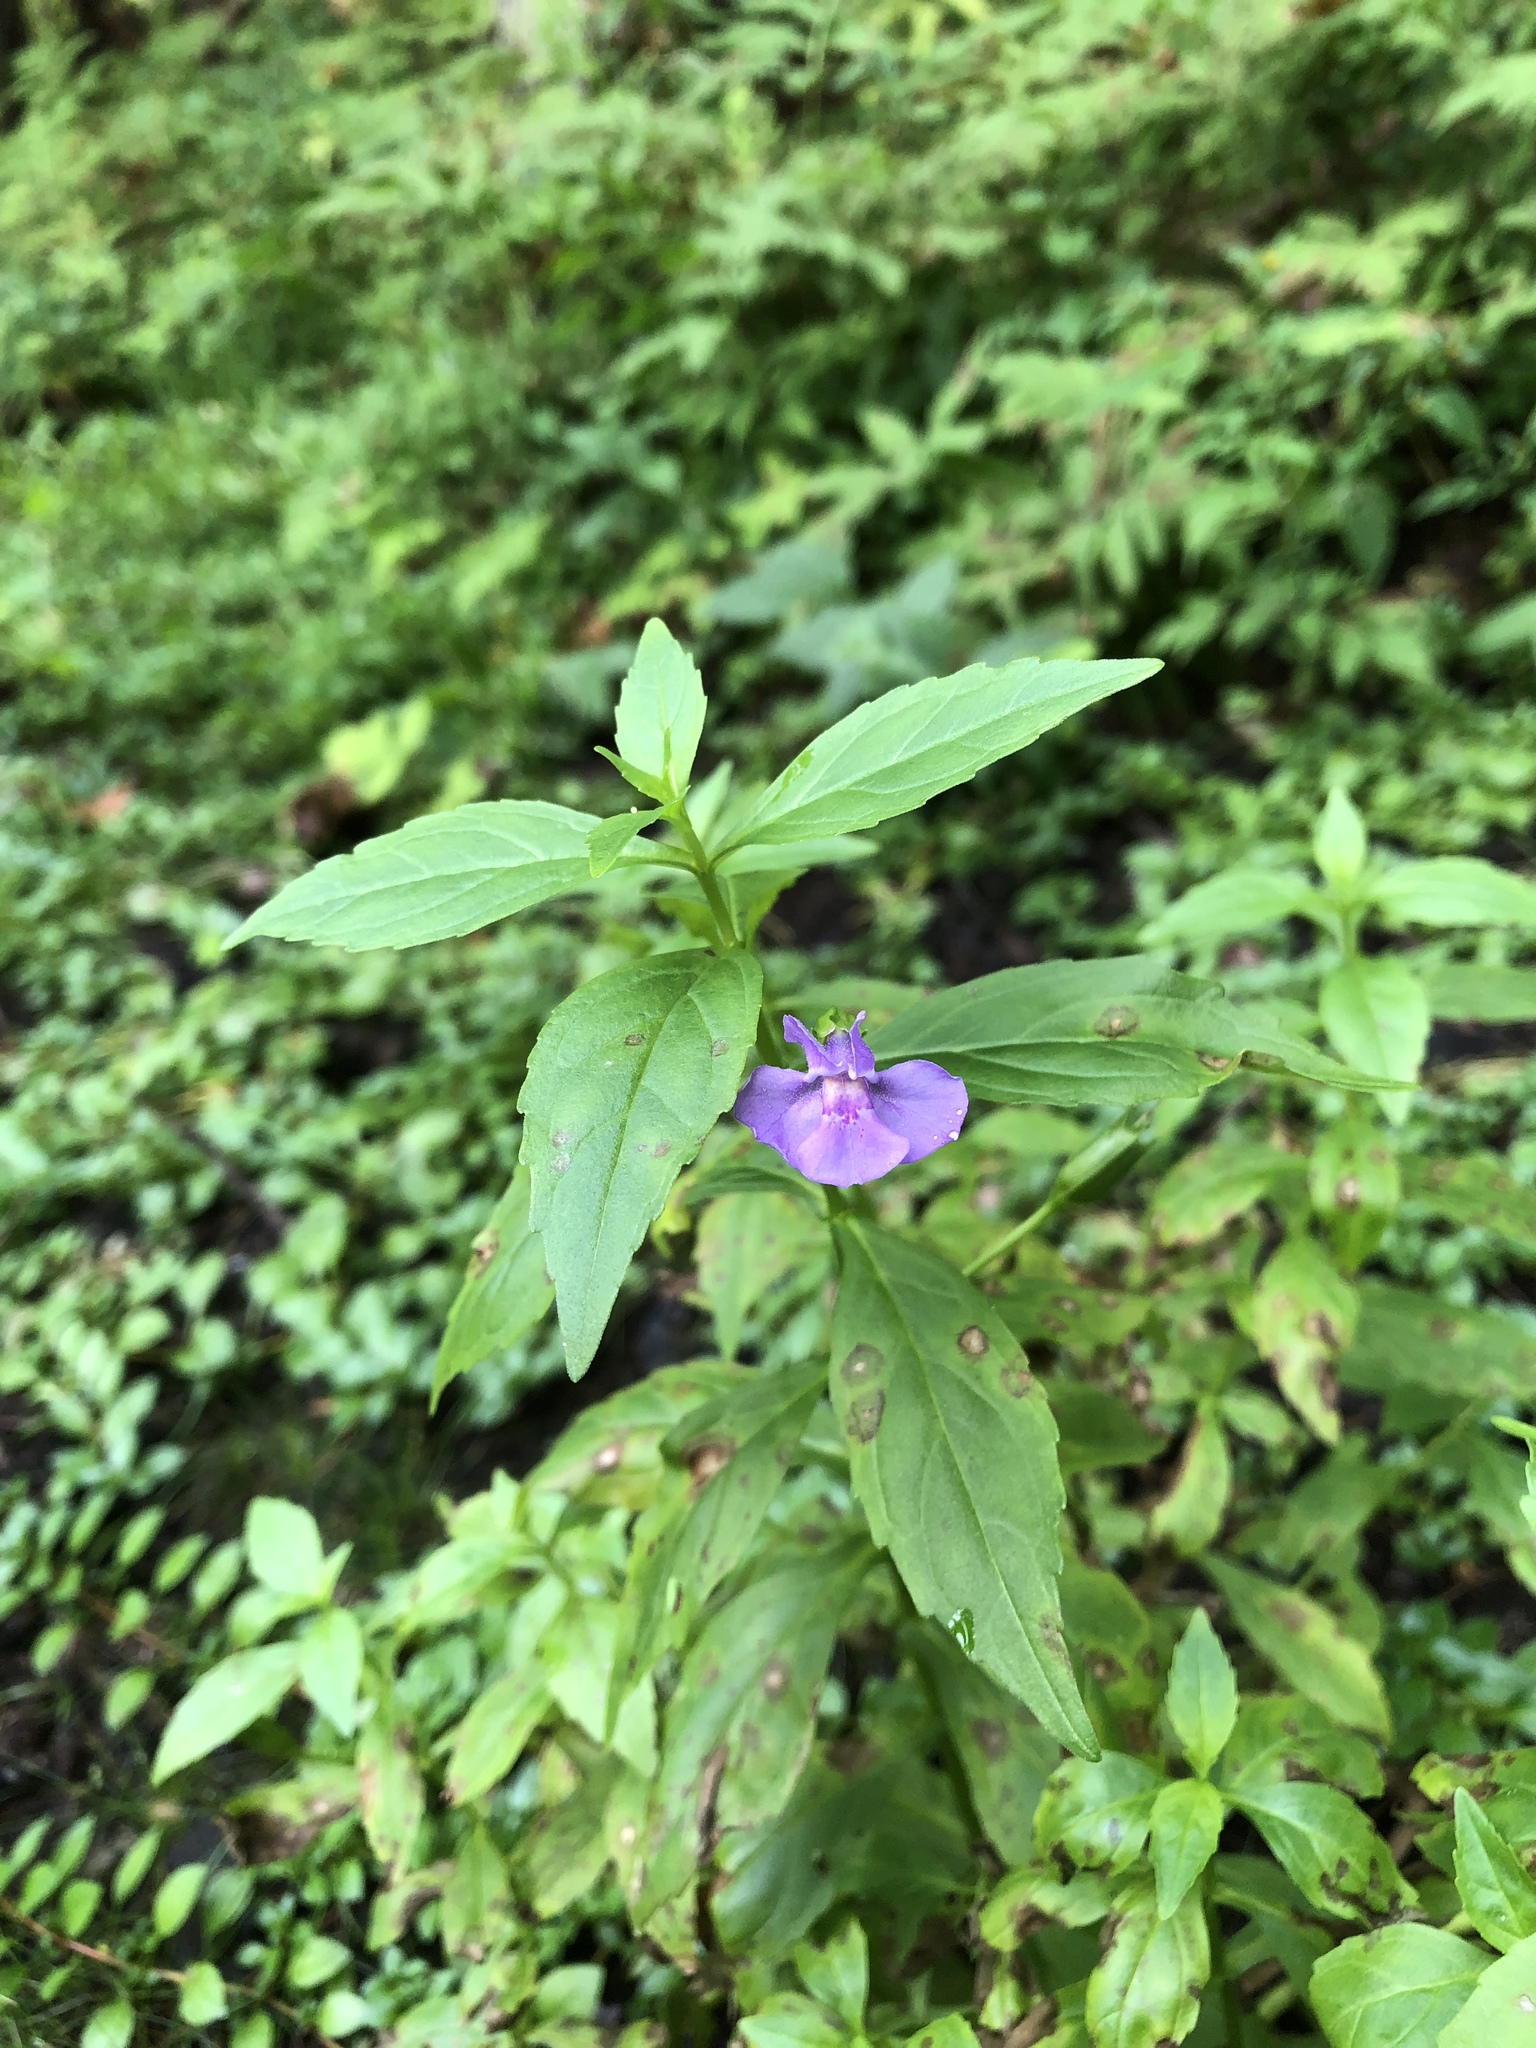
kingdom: Plantae
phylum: Tracheophyta
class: Magnoliopsida
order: Lamiales
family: Phrymaceae
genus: Mimulus
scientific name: Mimulus ringens
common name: Allegheny monkeyflower
